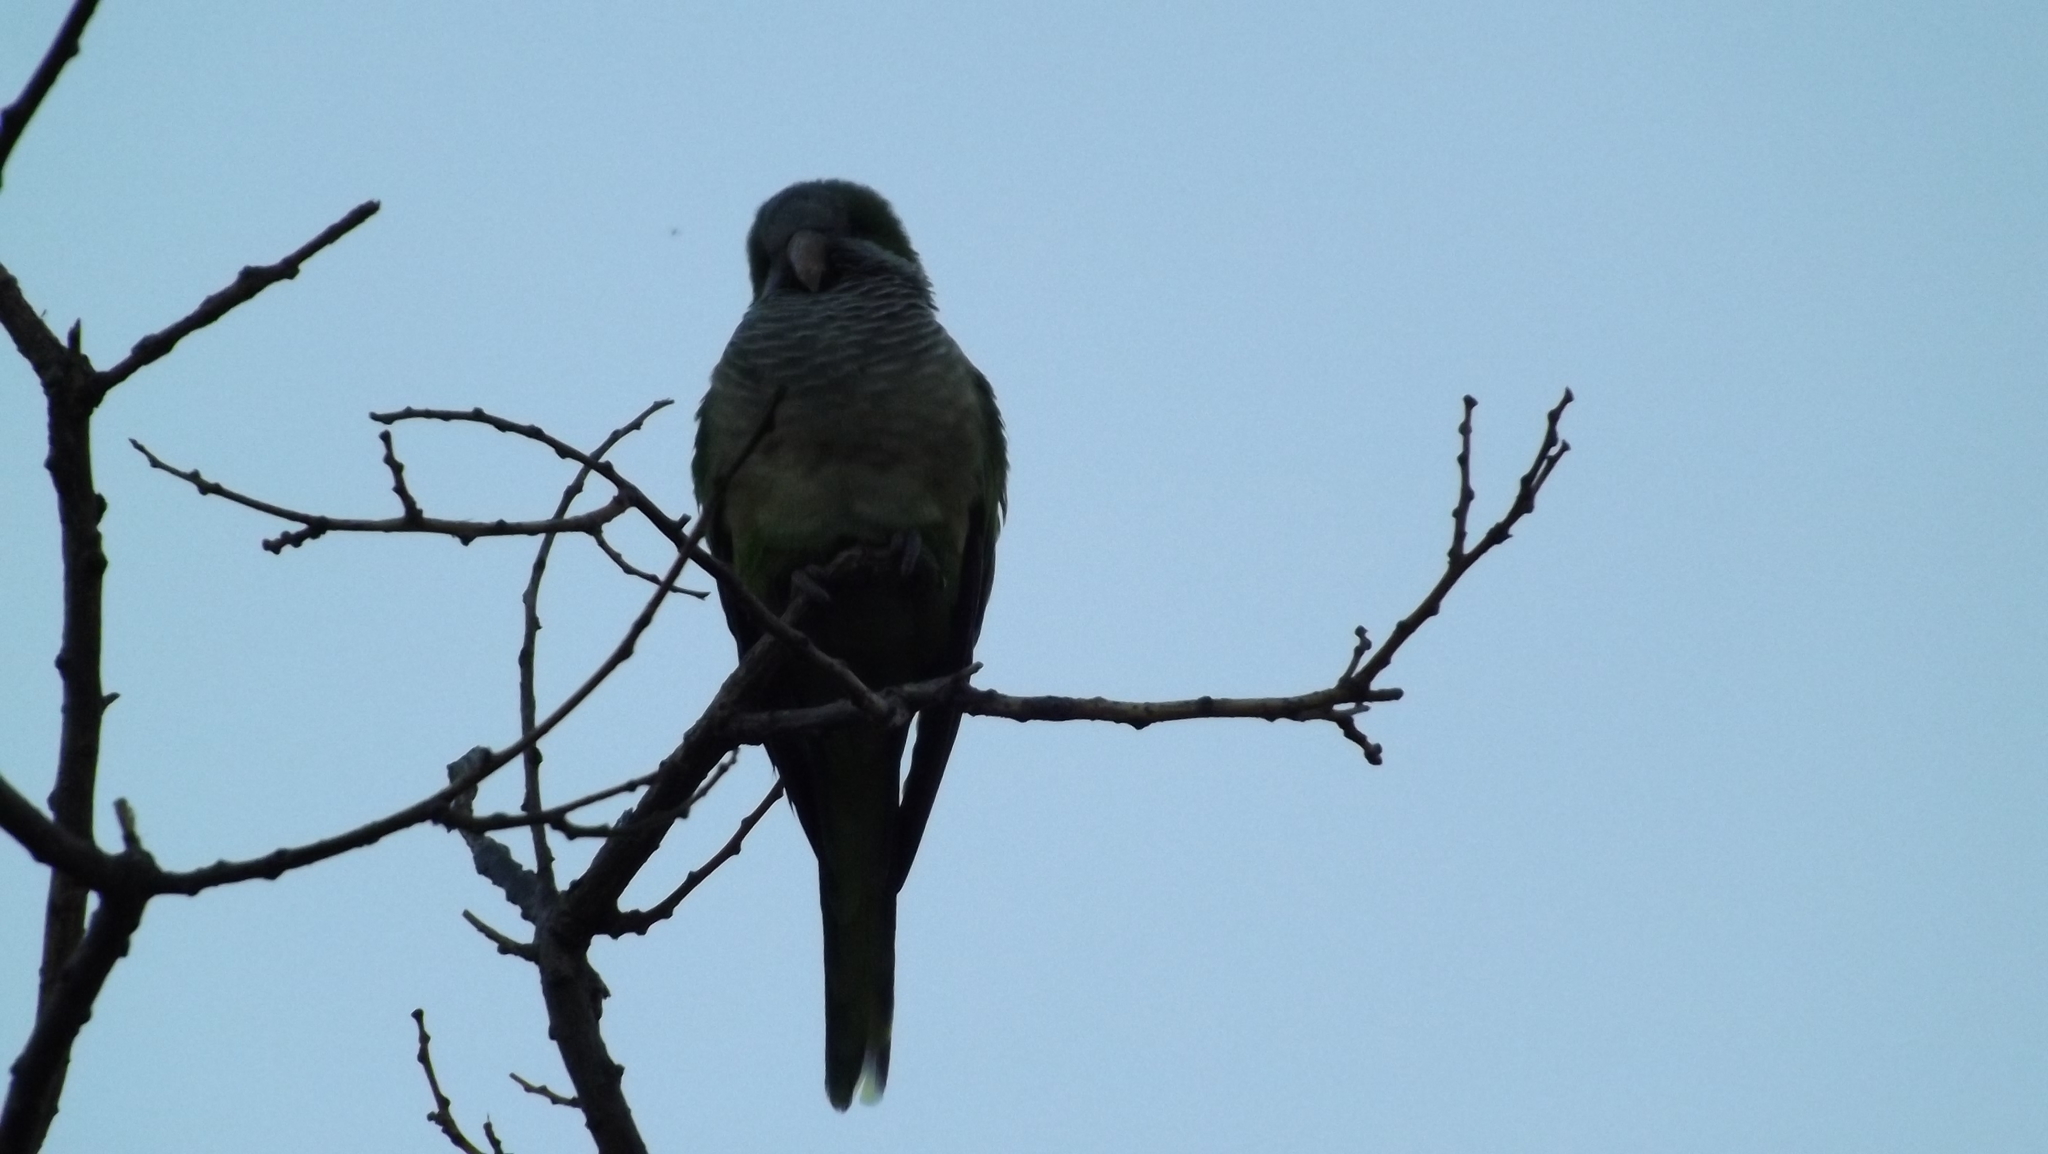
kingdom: Animalia
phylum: Chordata
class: Aves
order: Psittaciformes
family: Psittacidae
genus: Myiopsitta
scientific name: Myiopsitta monachus
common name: Monk parakeet
